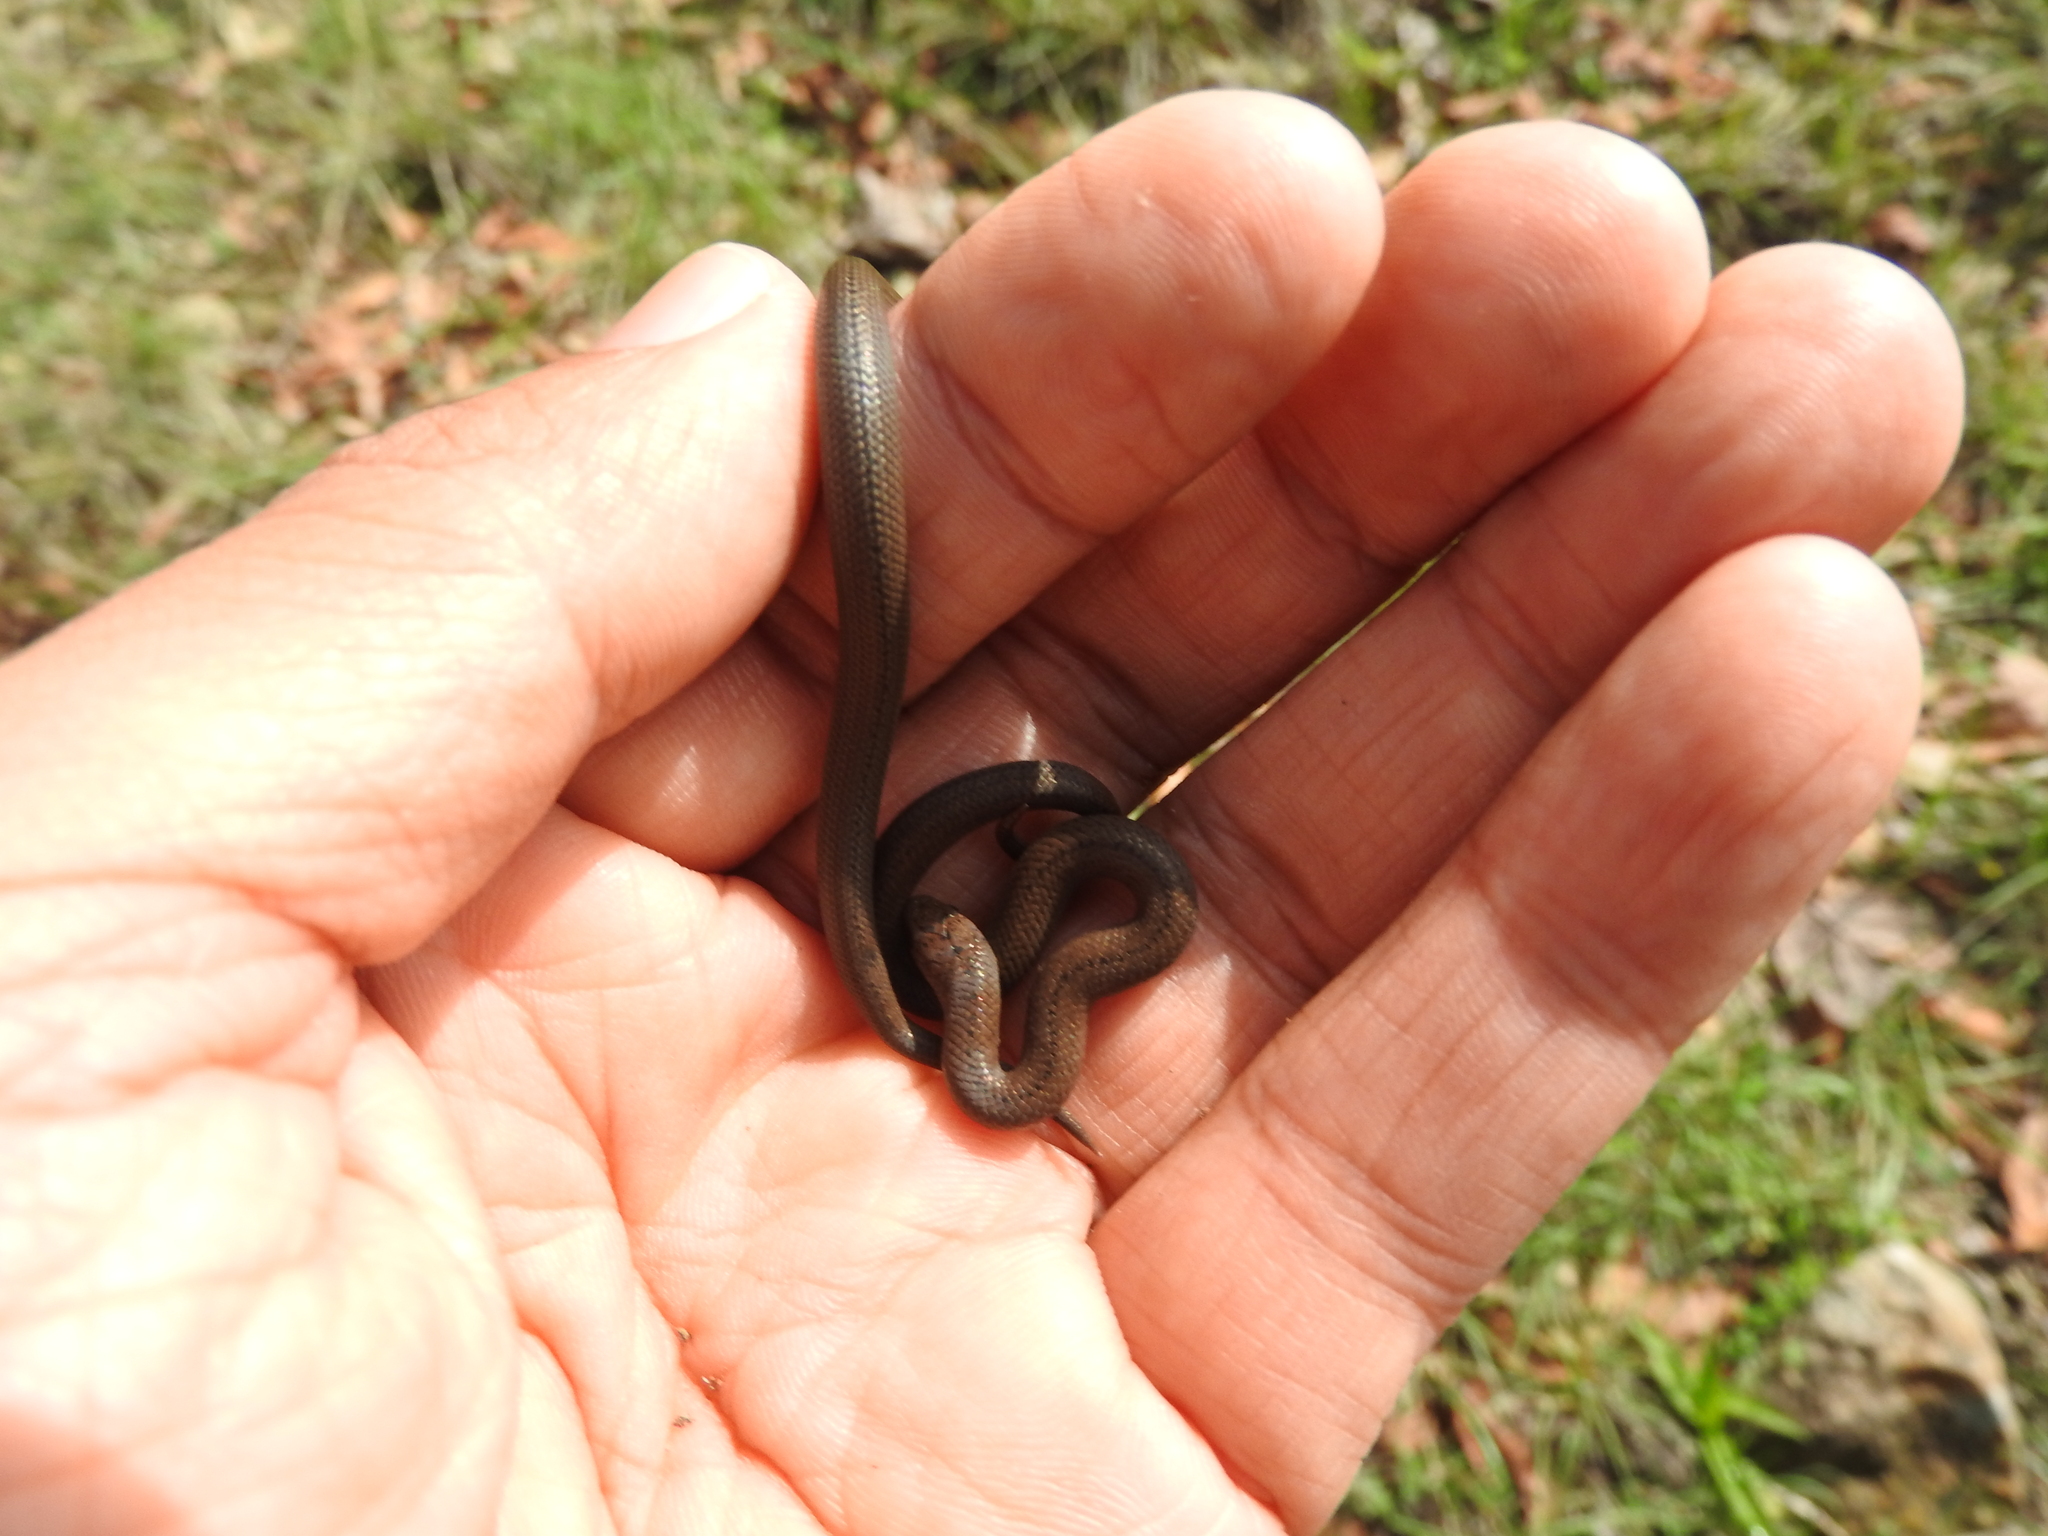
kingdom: Animalia
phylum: Chordata
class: Squamata
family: Colubridae
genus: Conopsis
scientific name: Conopsis lineata
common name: Lined tolucan earthsnake
